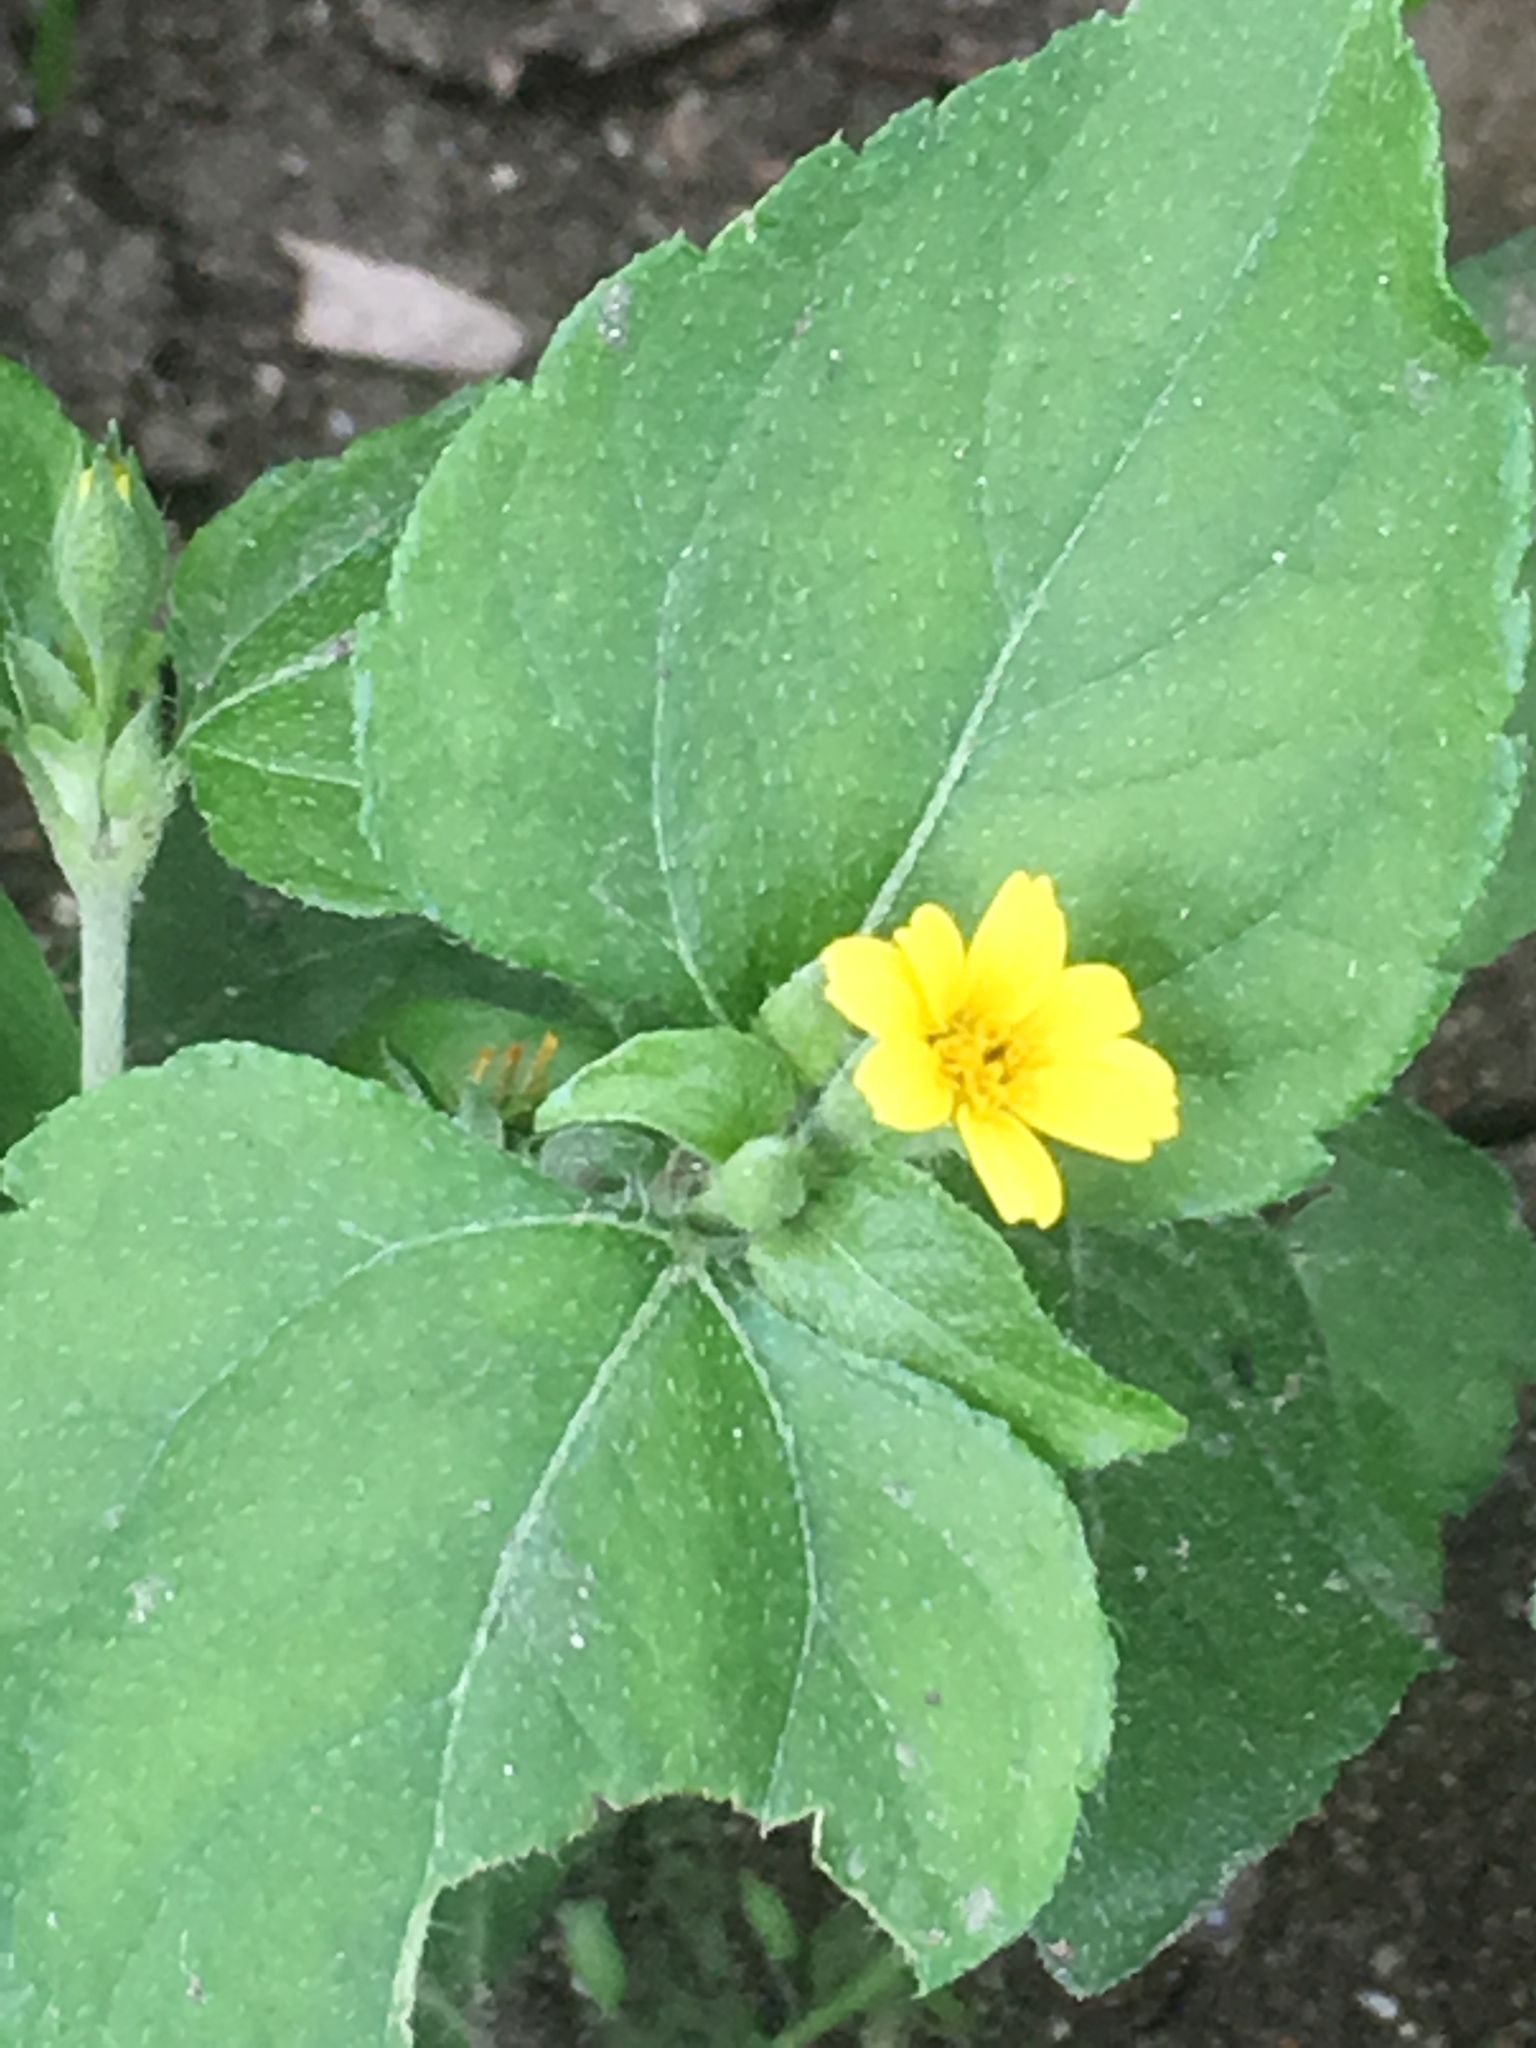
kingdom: Plantae
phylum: Tracheophyta
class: Magnoliopsida
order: Asterales
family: Asteraceae
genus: Calyptocarpus
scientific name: Calyptocarpus vialis
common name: Straggler daisy
